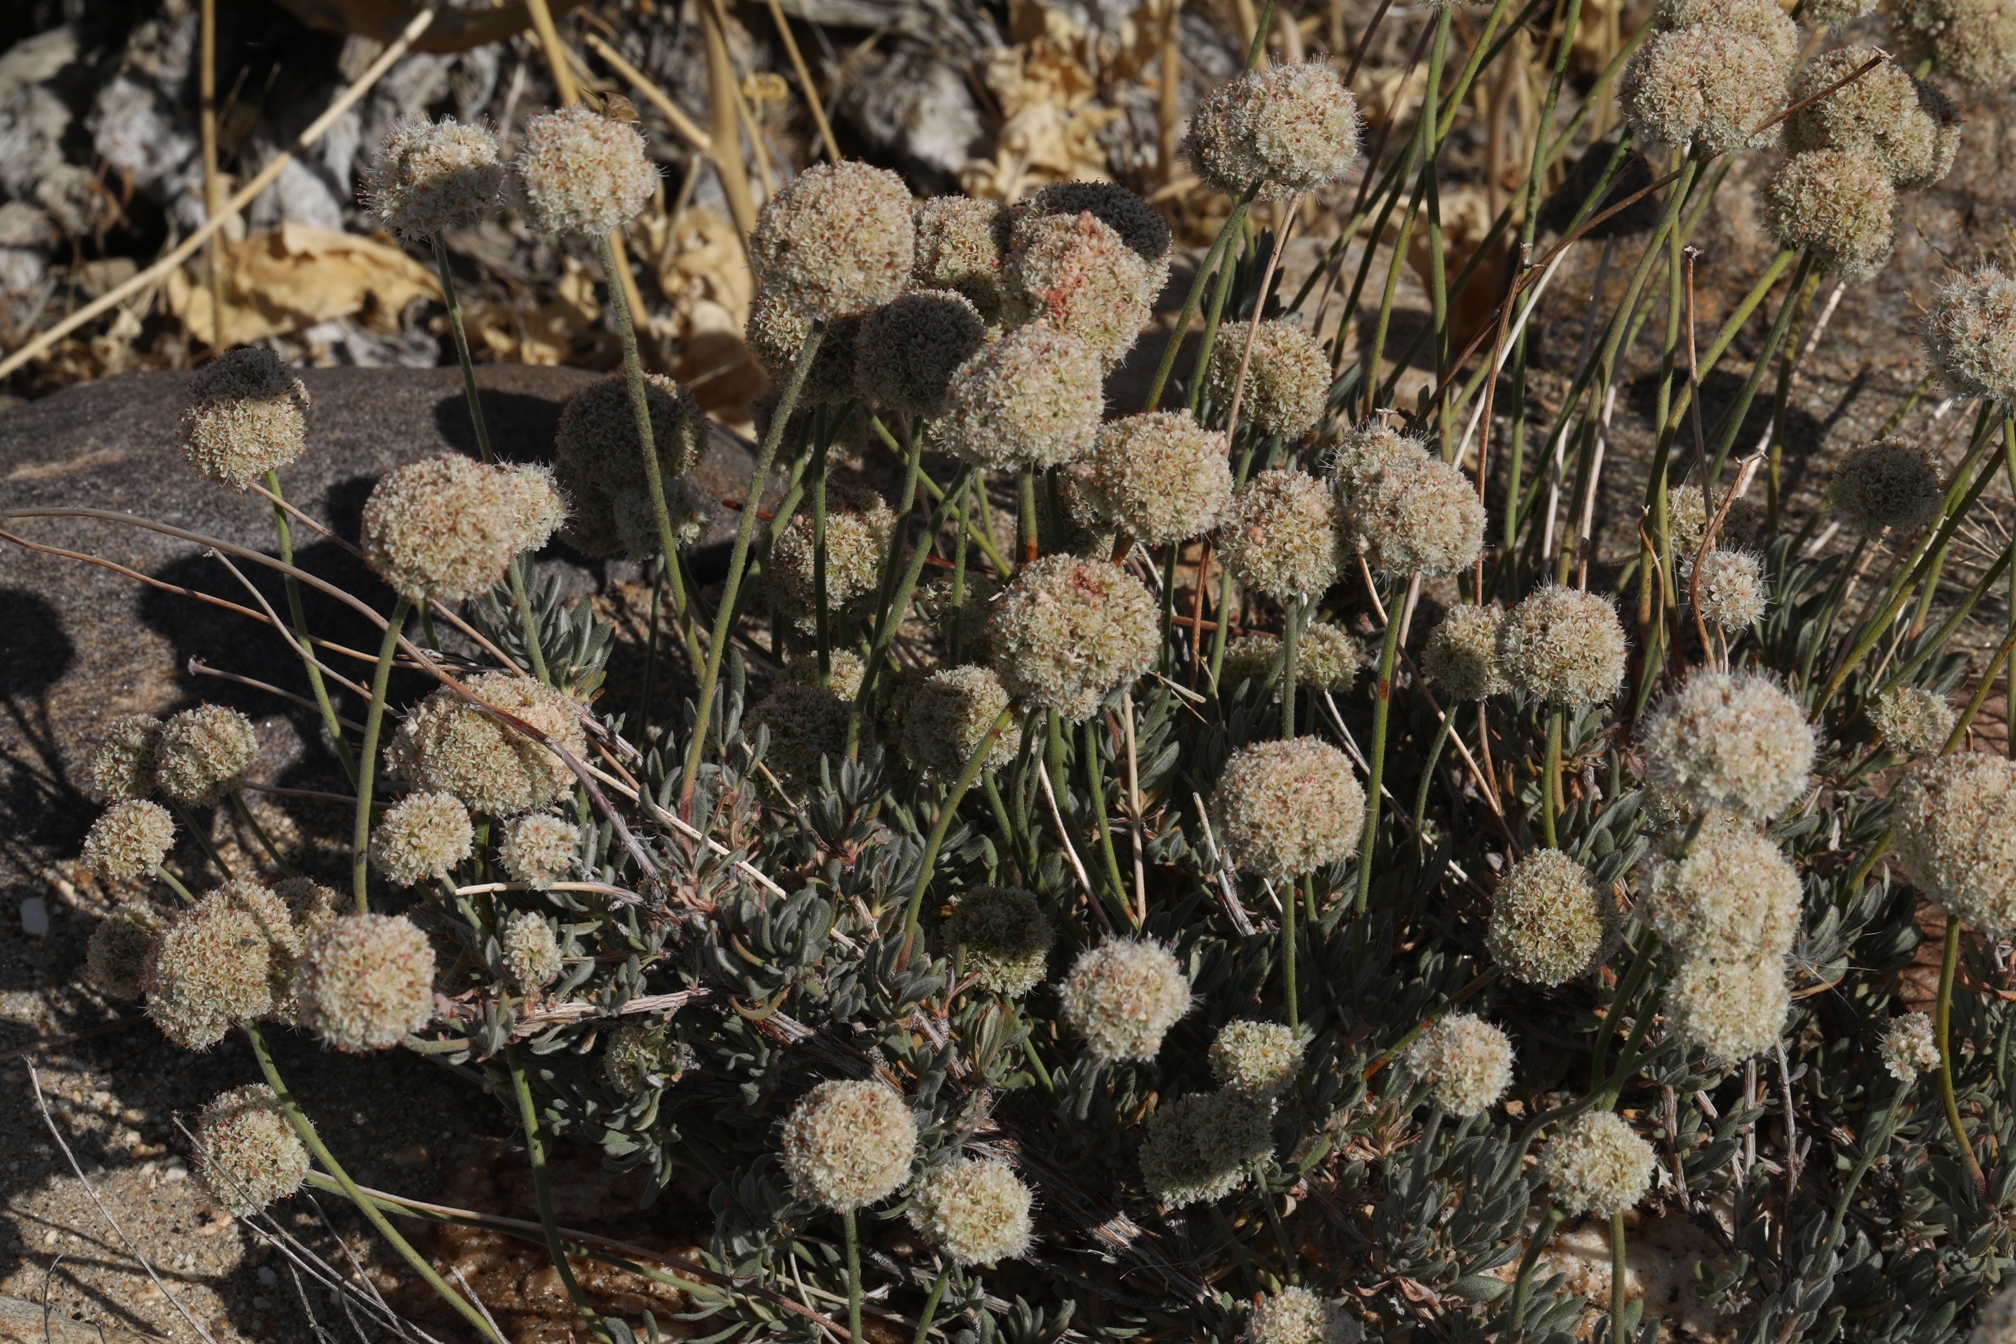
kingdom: Plantae
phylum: Tracheophyta
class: Magnoliopsida
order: Caryophyllales
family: Polygonaceae
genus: Eriogonum
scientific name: Eriogonum fasciculatum
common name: California wild buckwheat
